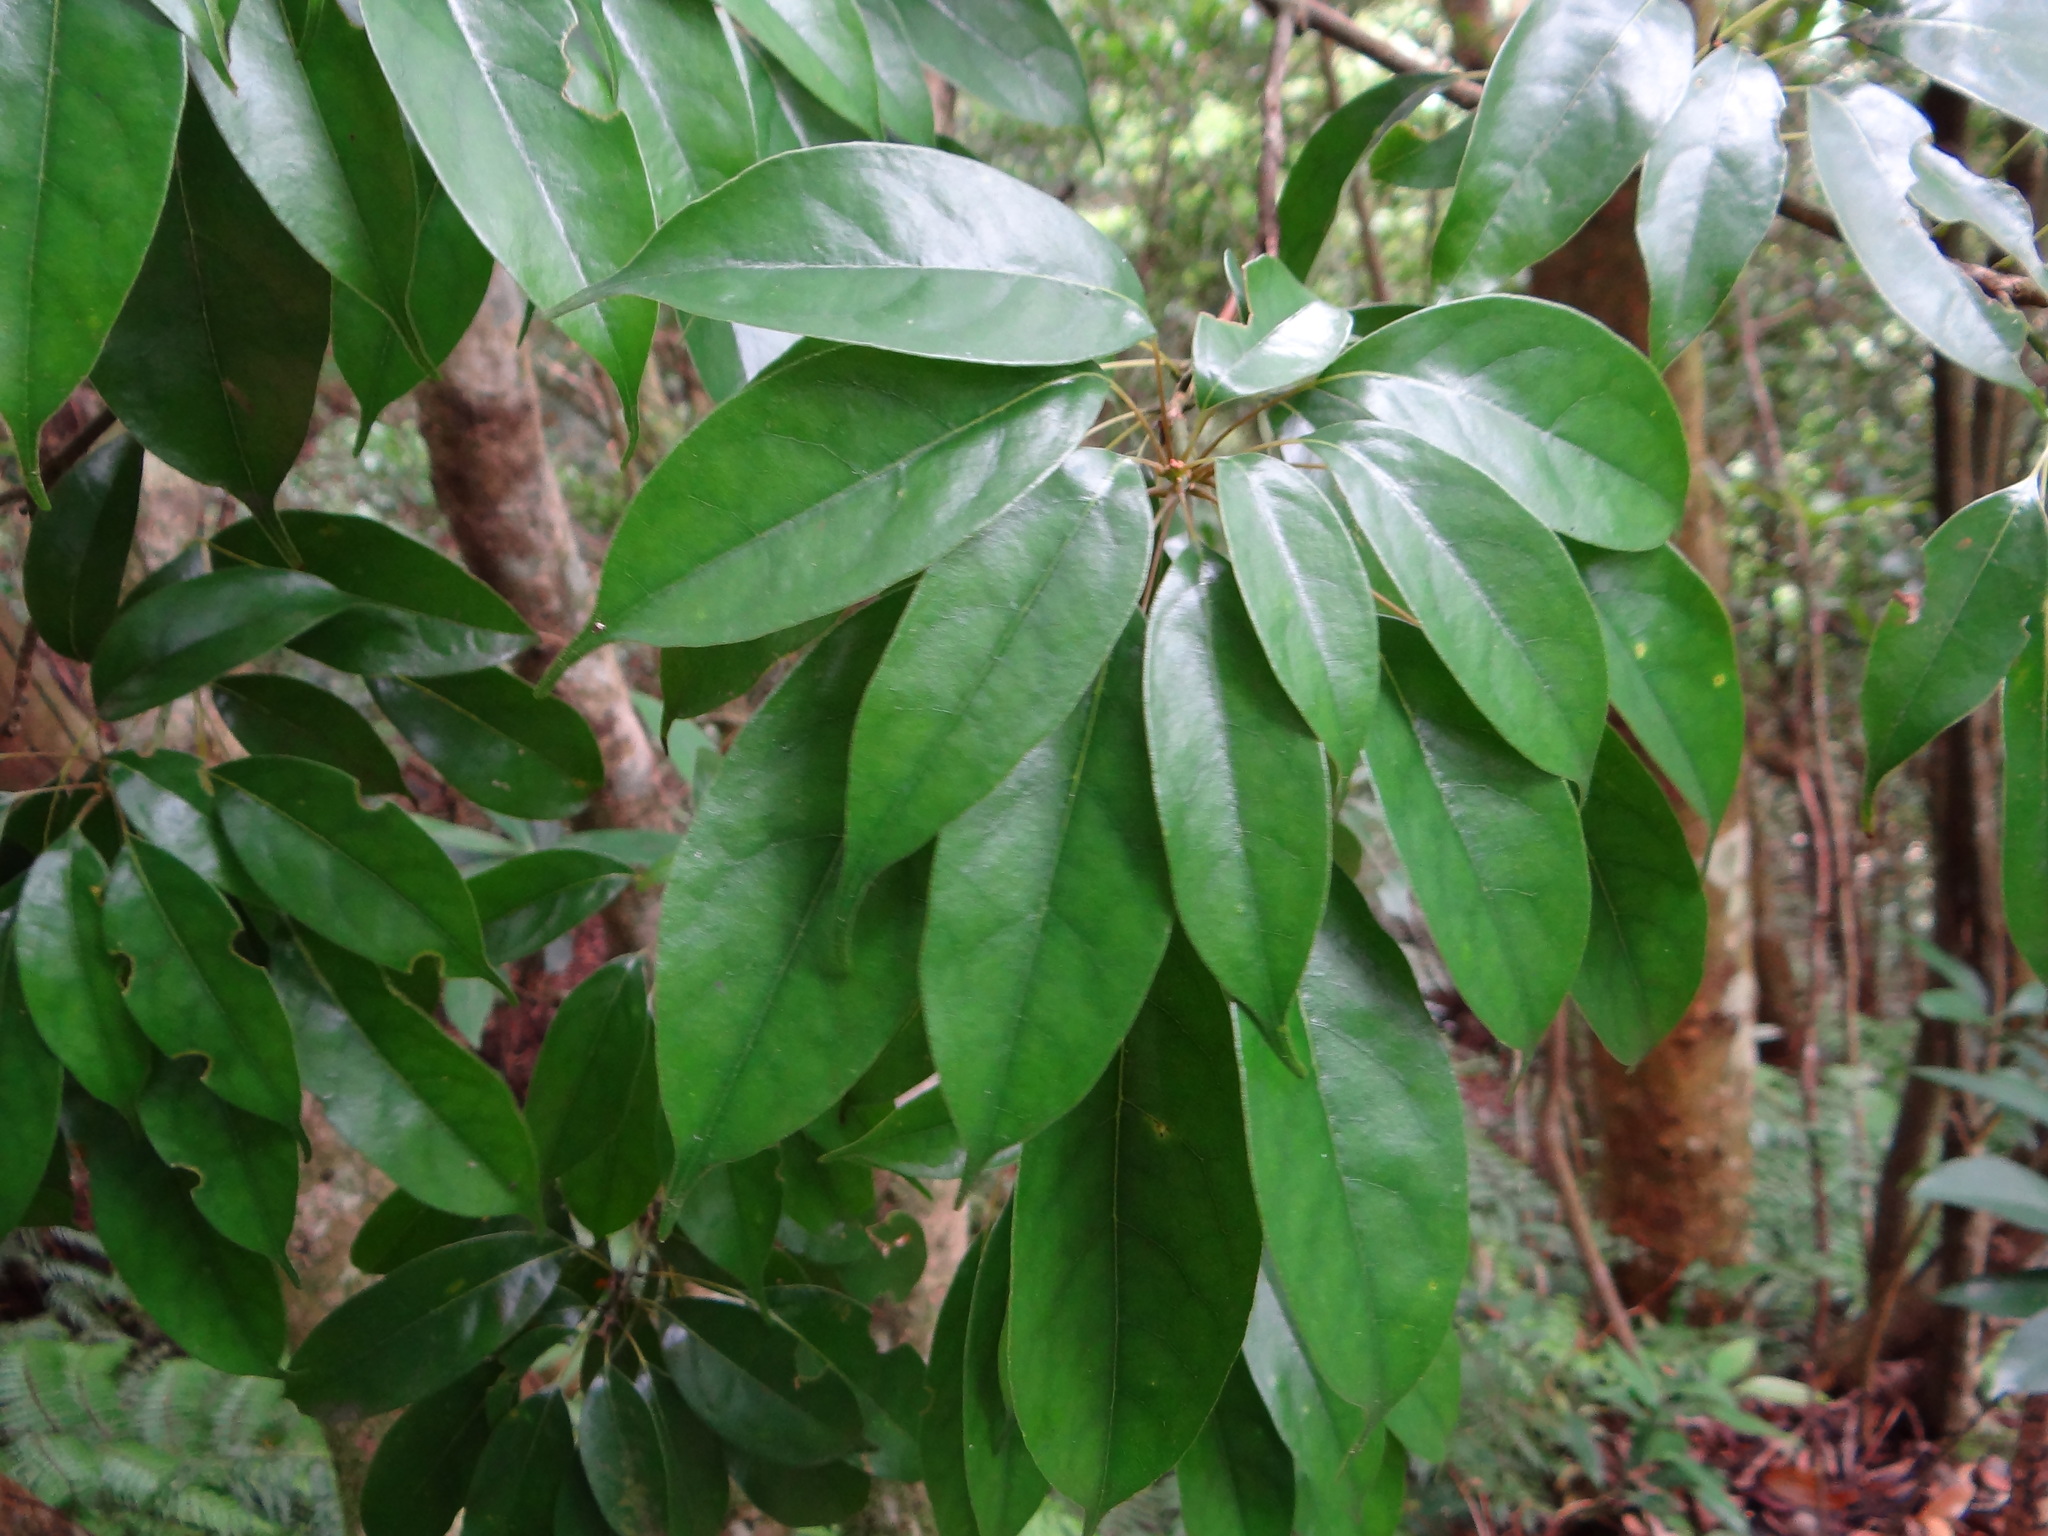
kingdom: Plantae
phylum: Tracheophyta
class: Magnoliopsida
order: Proteales
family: Sabiaceae
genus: Meliosma
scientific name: Meliosma squamulata
